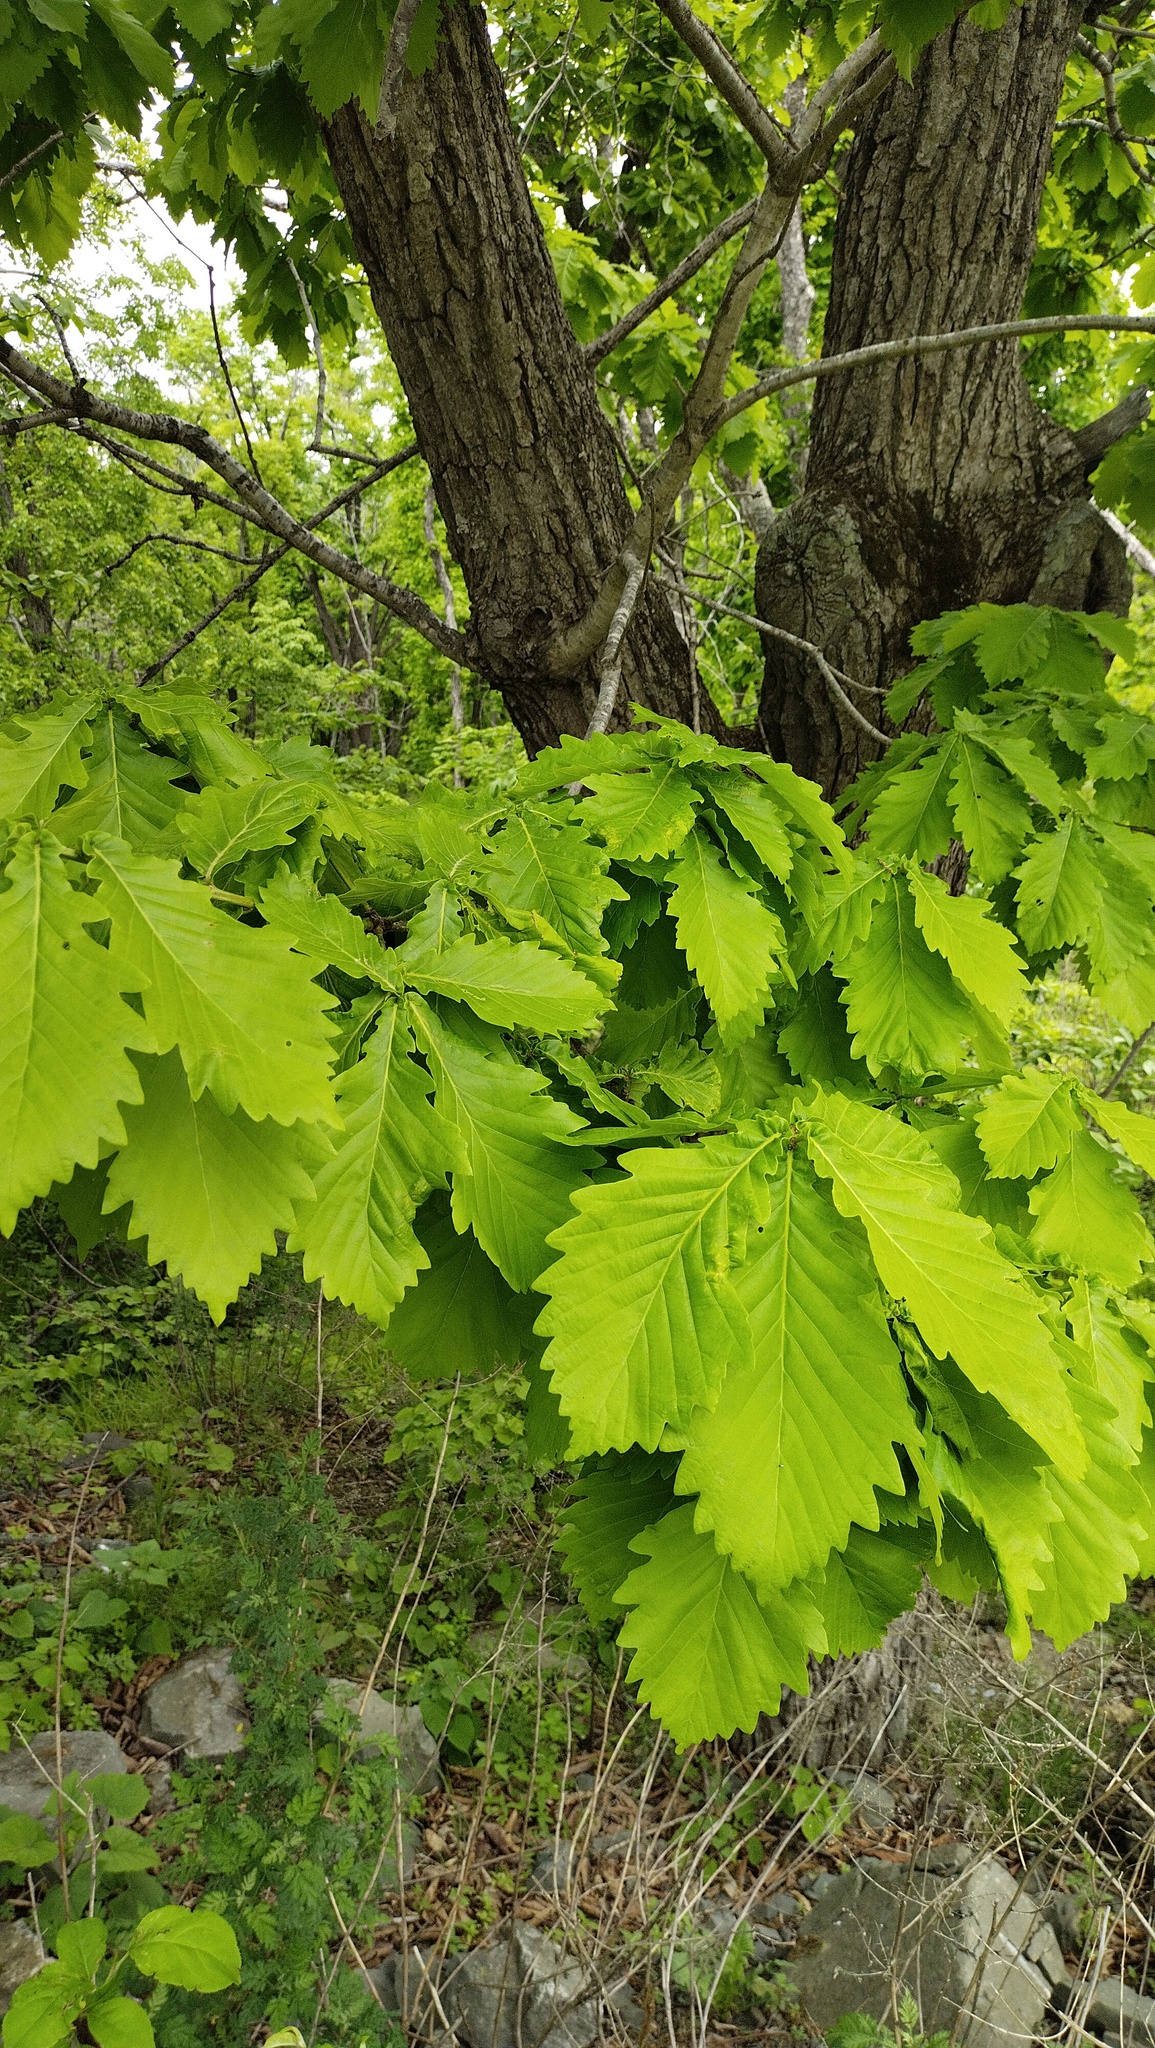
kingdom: Plantae
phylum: Tracheophyta
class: Magnoliopsida
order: Fagales
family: Fagaceae
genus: Quercus
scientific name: Quercus mongolica
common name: Mongolian oak
